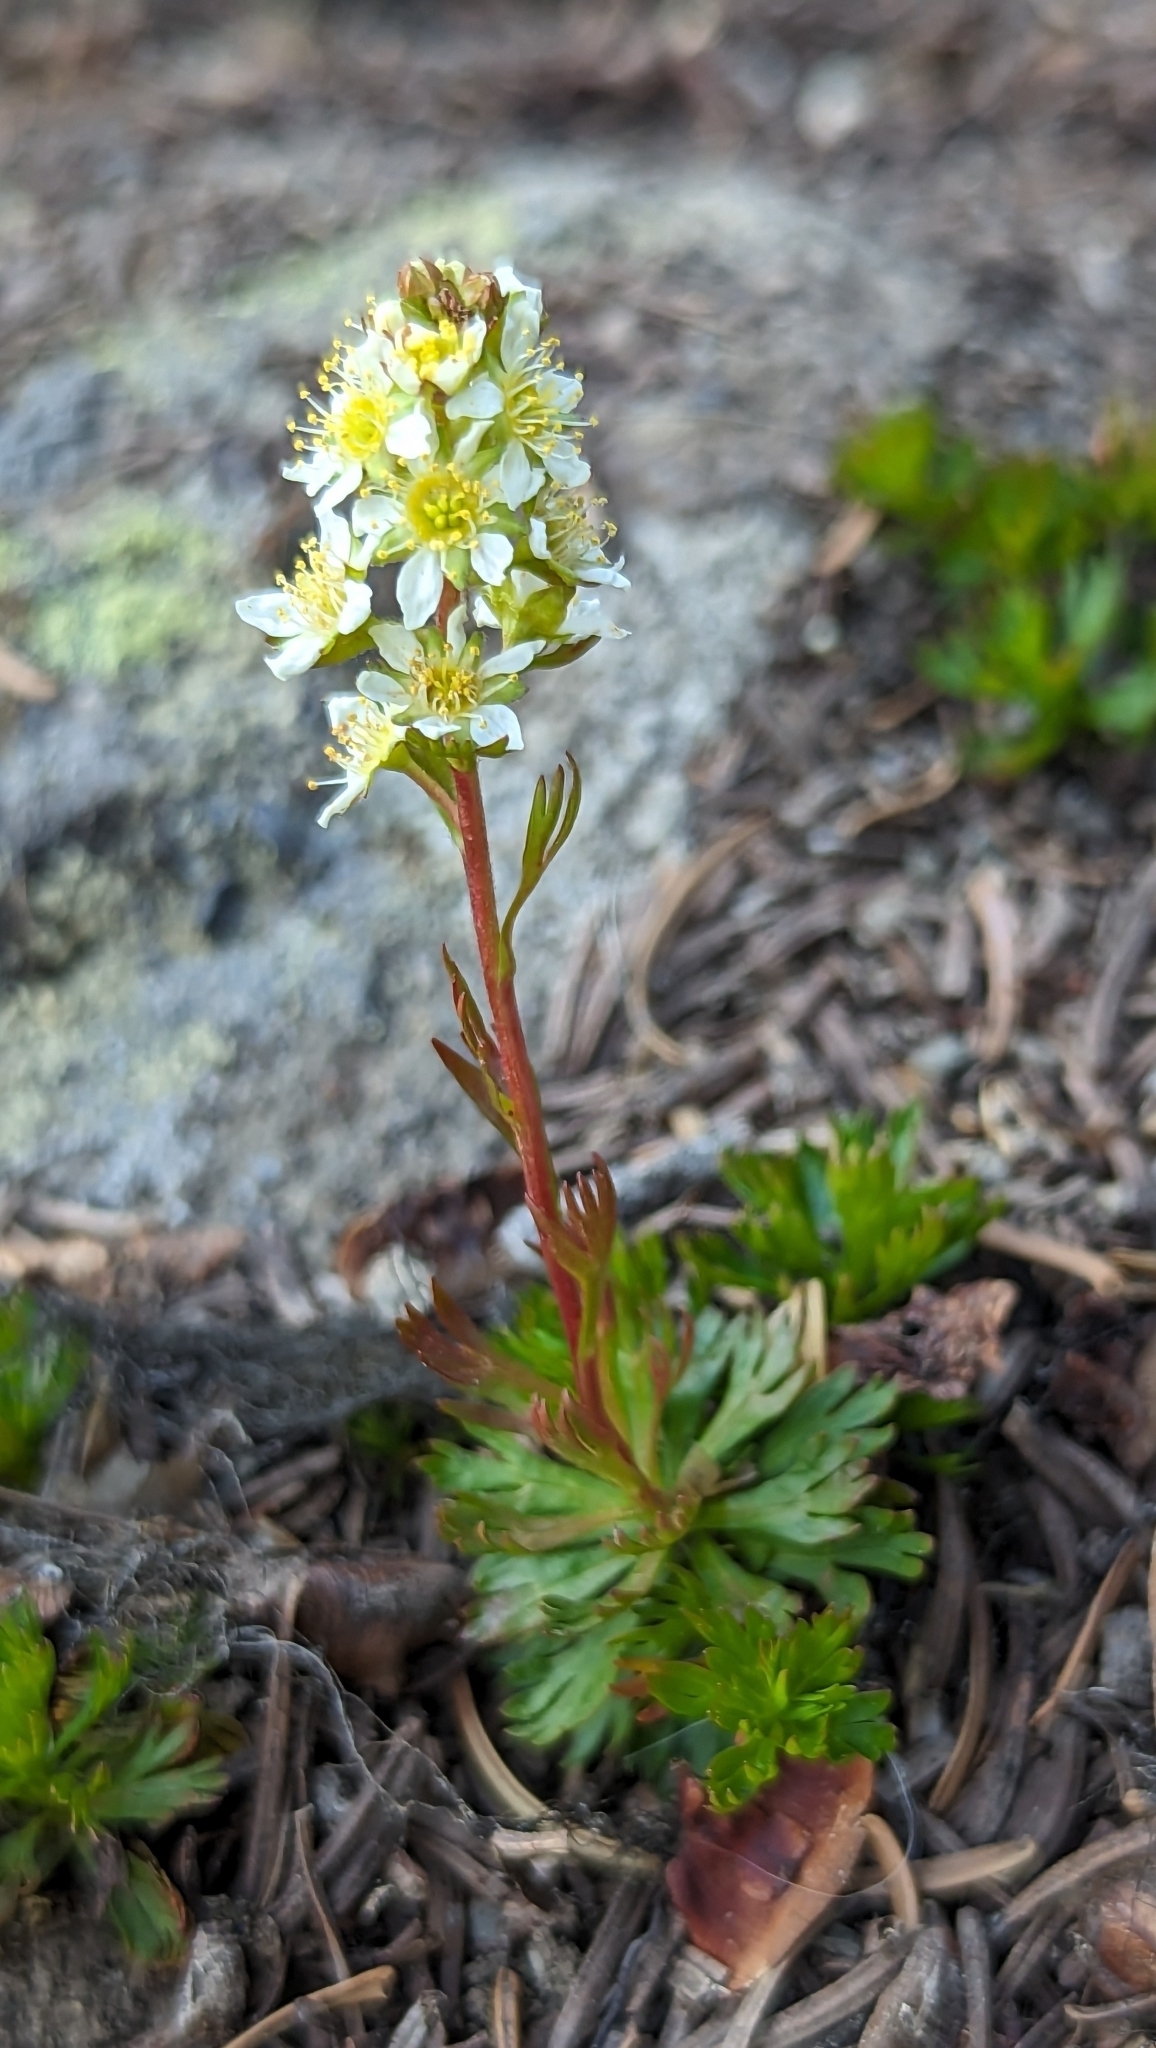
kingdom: Plantae
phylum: Tracheophyta
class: Magnoliopsida
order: Rosales
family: Rosaceae
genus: Luetkea
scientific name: Luetkea pectinata
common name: Partridgefoot
